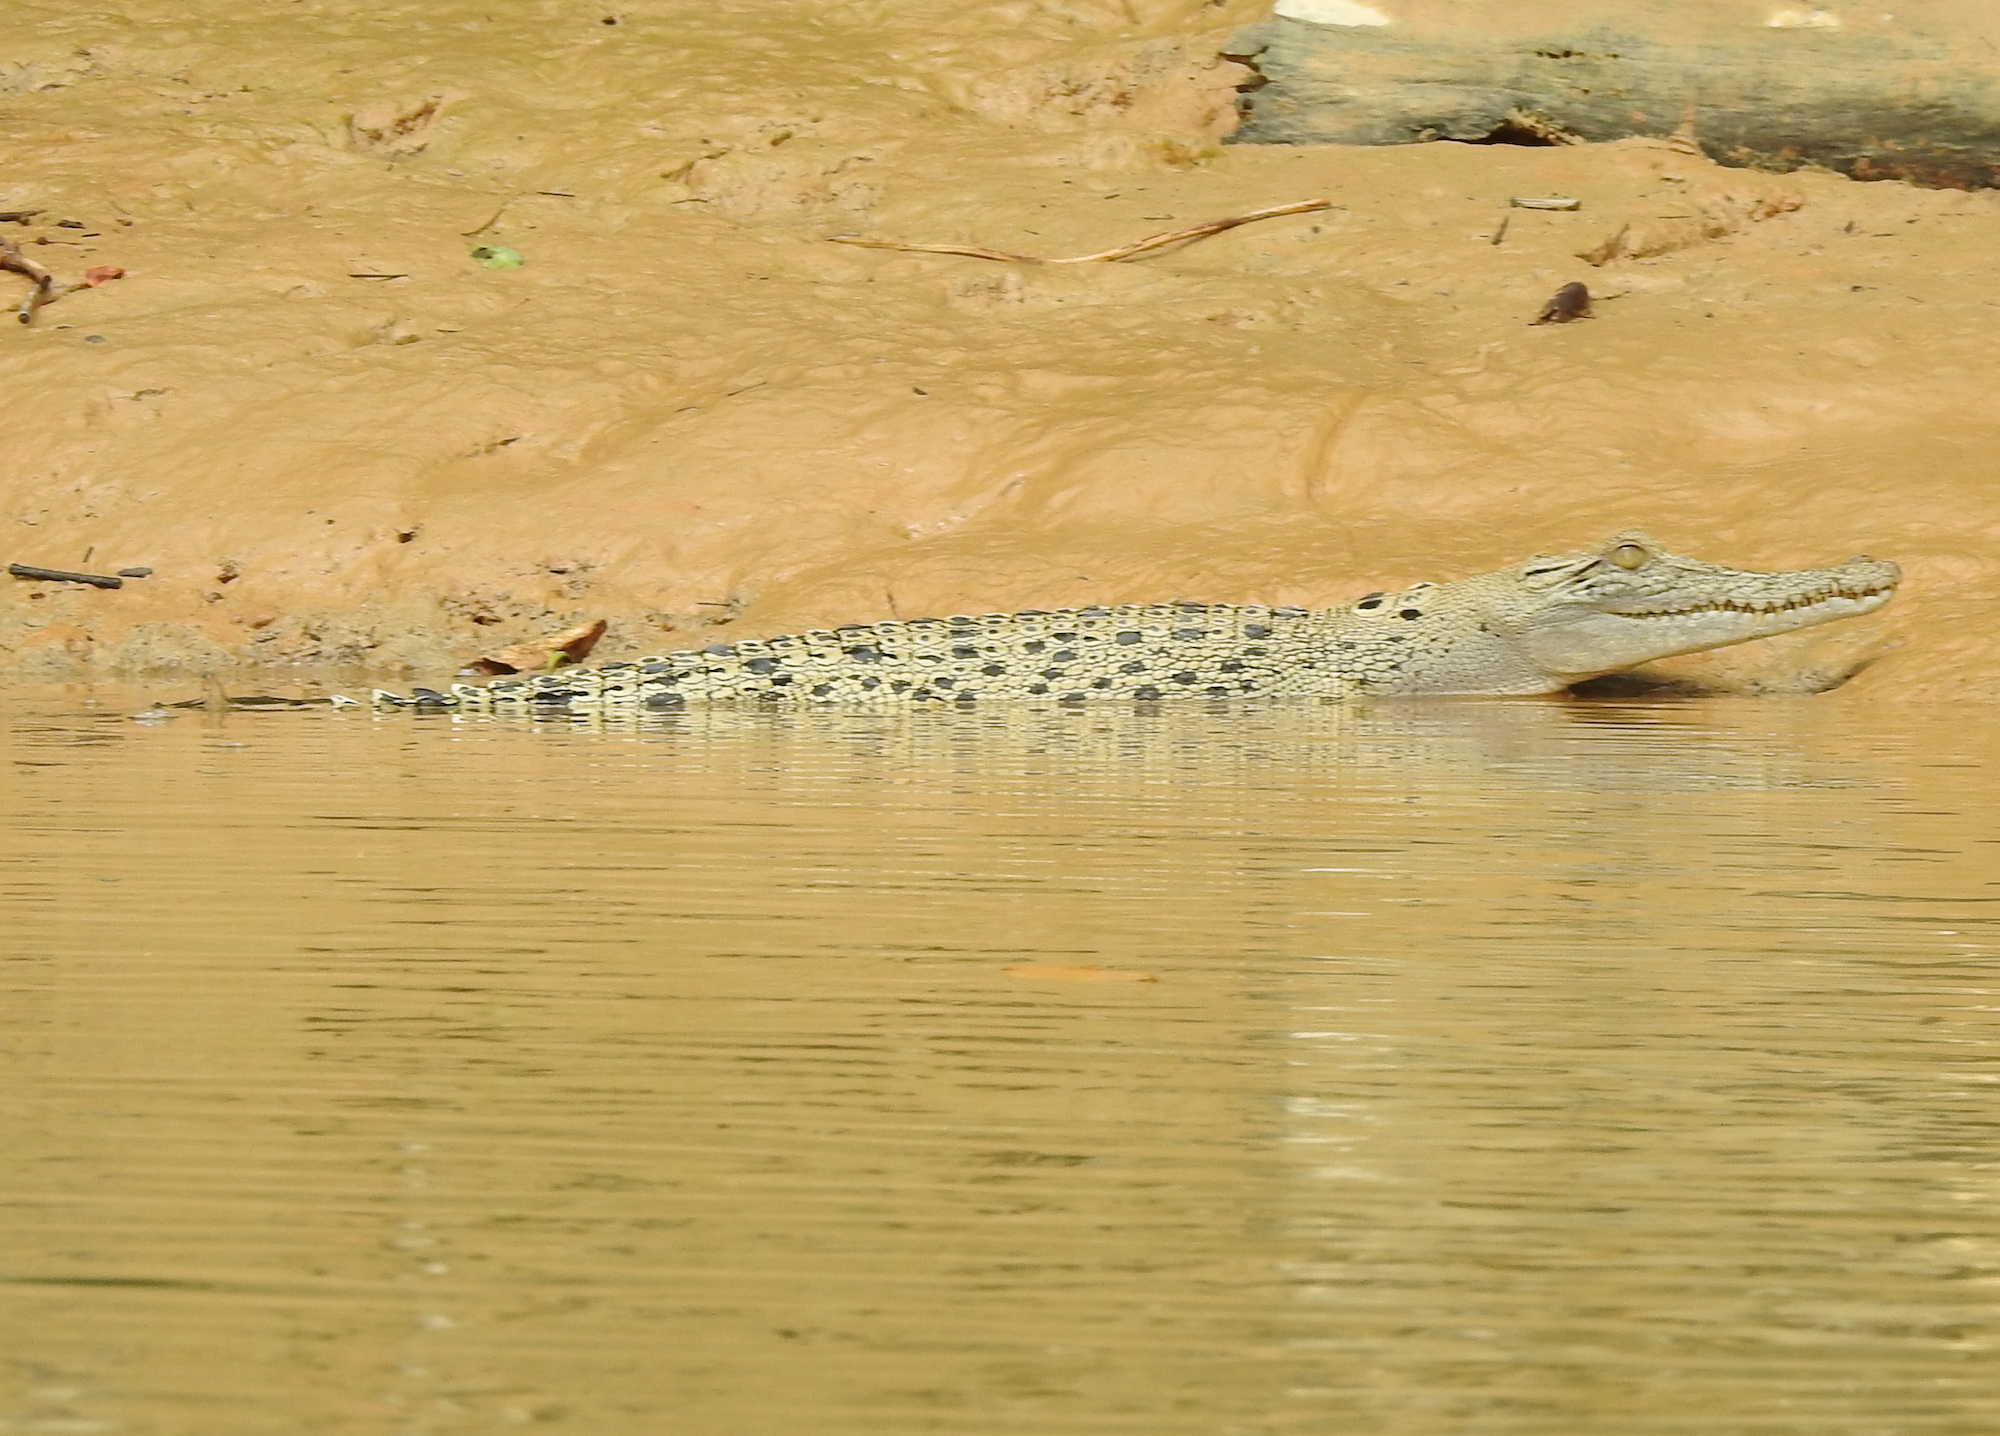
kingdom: Animalia
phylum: Chordata
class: Crocodylia
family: Crocodylidae
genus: Crocodylus
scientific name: Crocodylus porosus
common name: Saltwater crocodile
